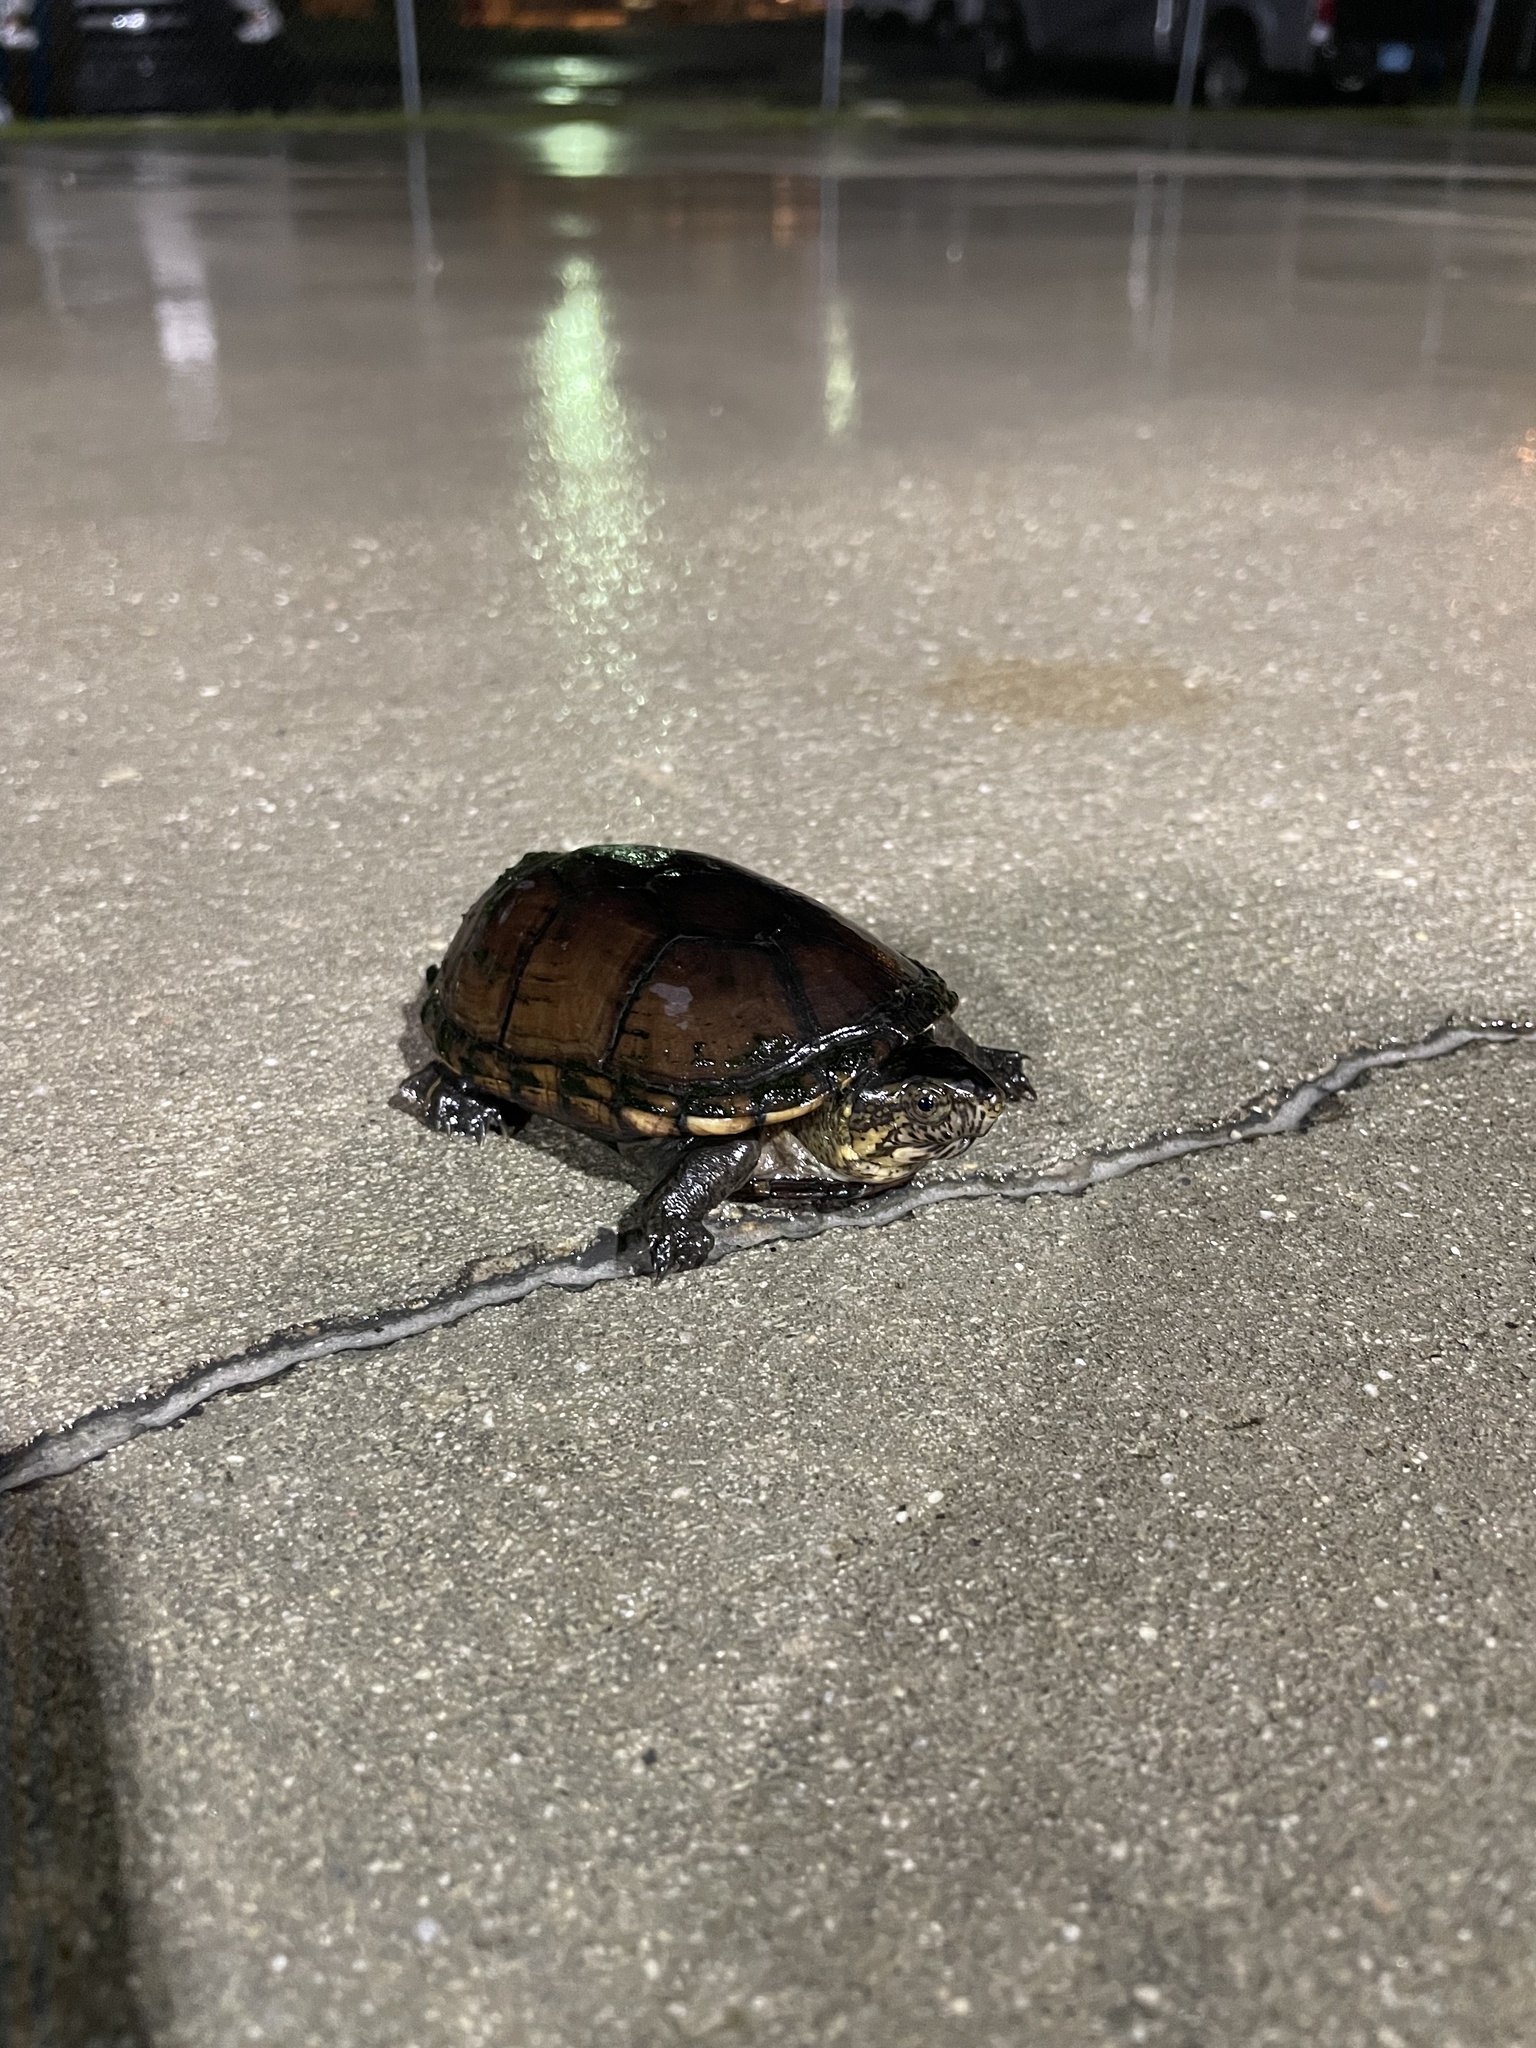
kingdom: Animalia
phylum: Chordata
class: Testudines
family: Kinosternidae
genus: Kinosternon
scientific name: Kinosternon subrubrum
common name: Eastern mud turtle
